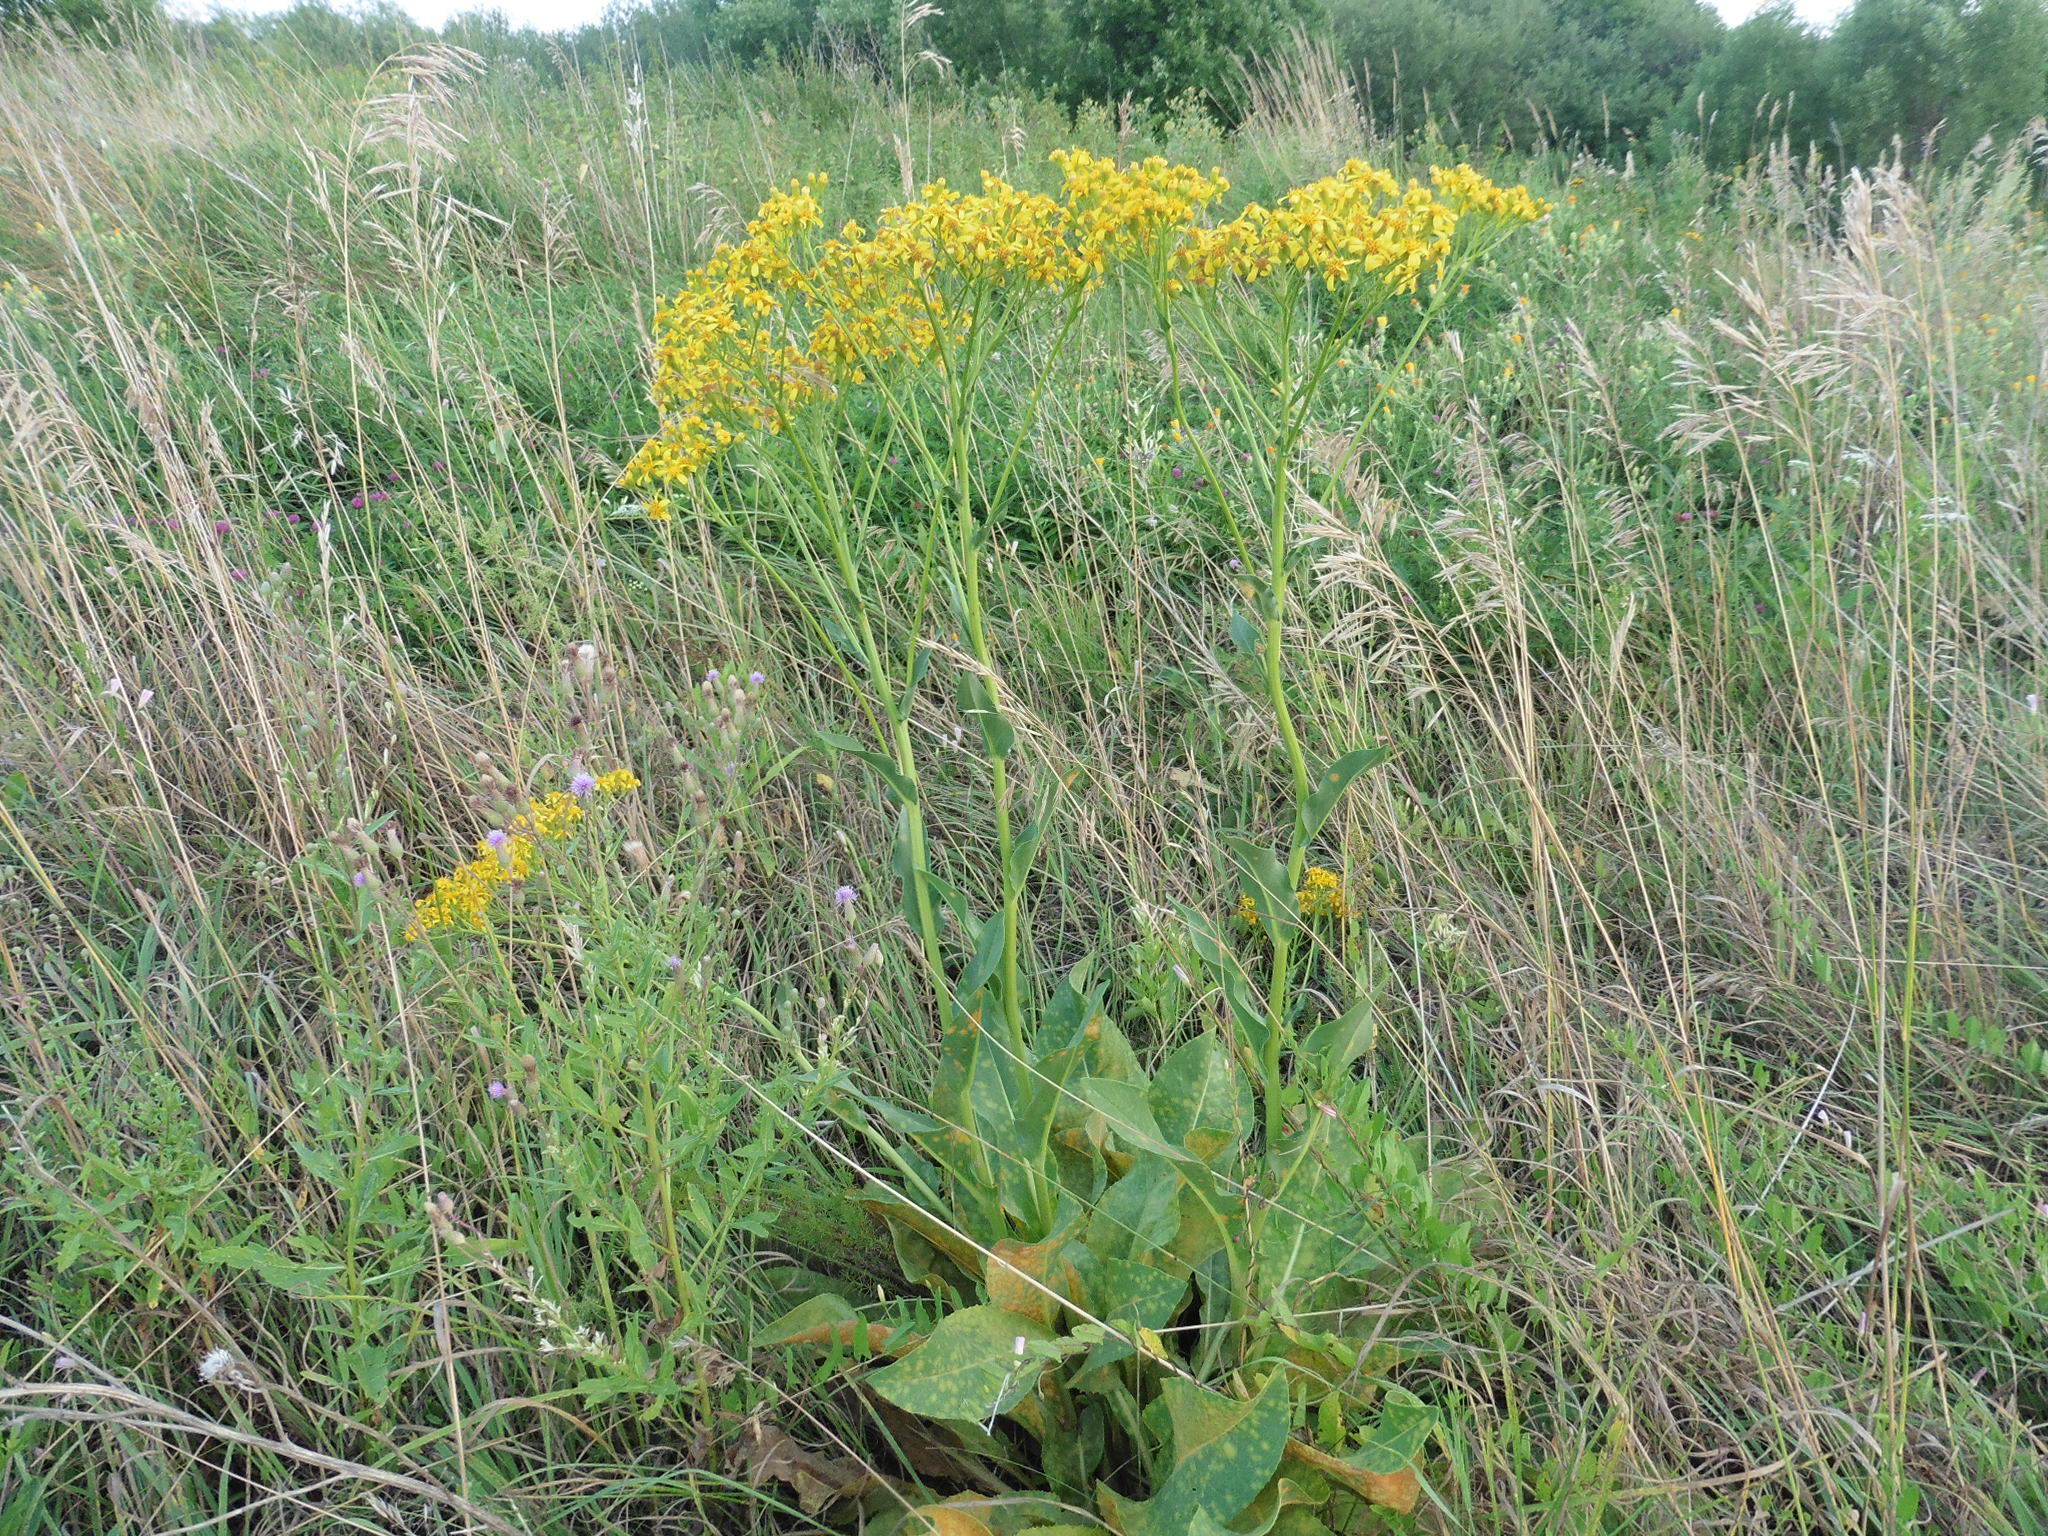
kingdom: Plantae
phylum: Tracheophyta
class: Magnoliopsida
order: Asterales
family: Asteraceae
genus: Senecio
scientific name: Senecio doria
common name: Golden ragwort
